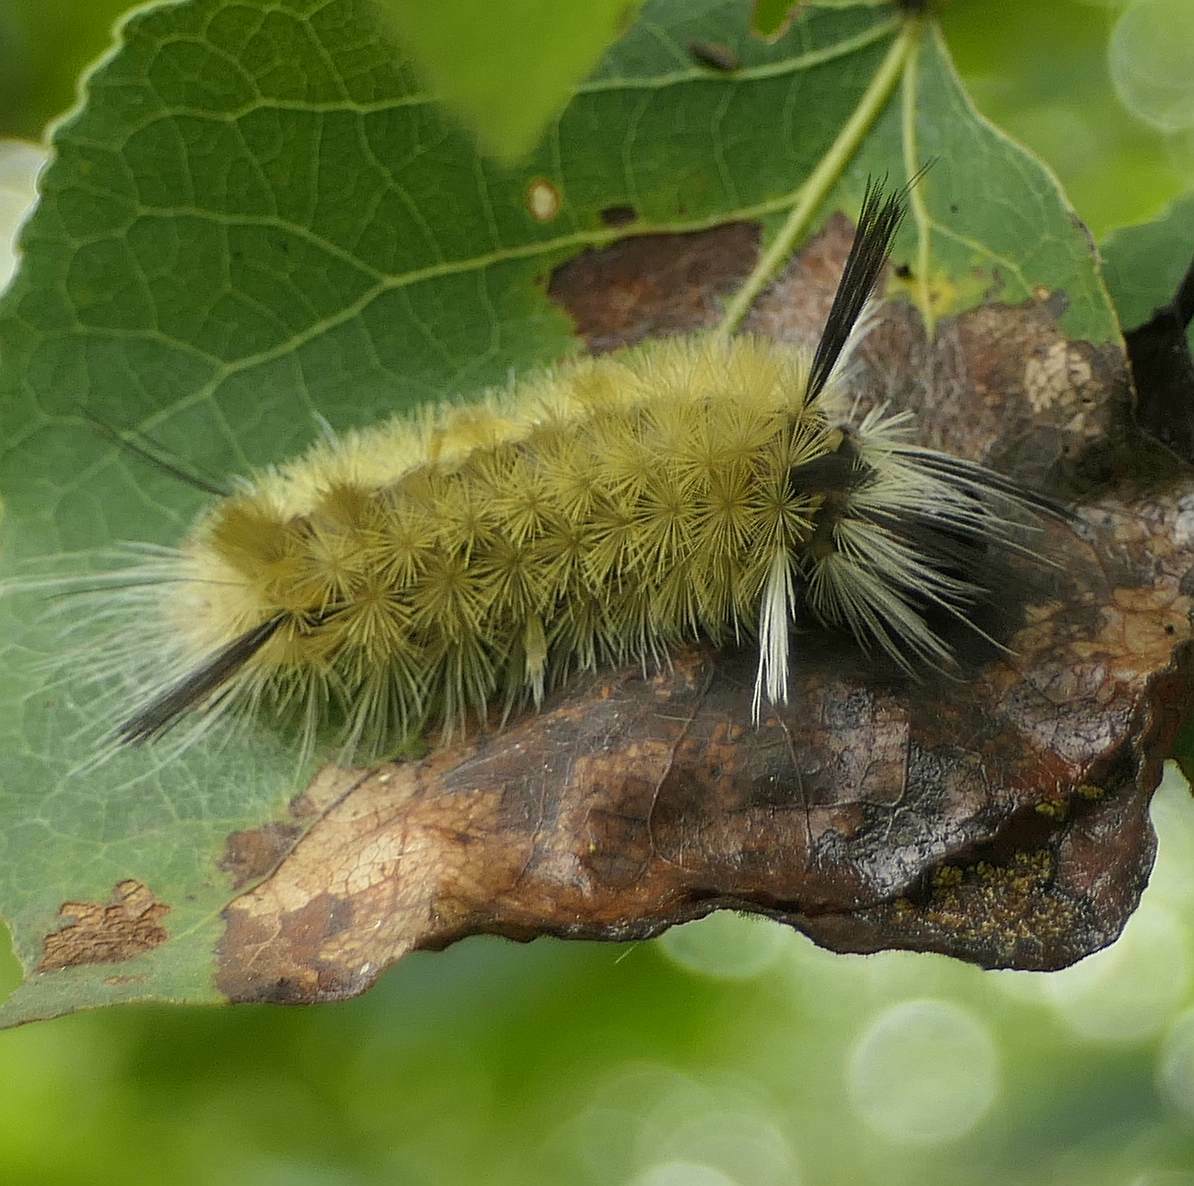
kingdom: Animalia
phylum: Arthropoda
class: Insecta
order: Lepidoptera
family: Erebidae
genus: Halysidota
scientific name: Halysidota tessellaris
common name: Banded tussock moth
